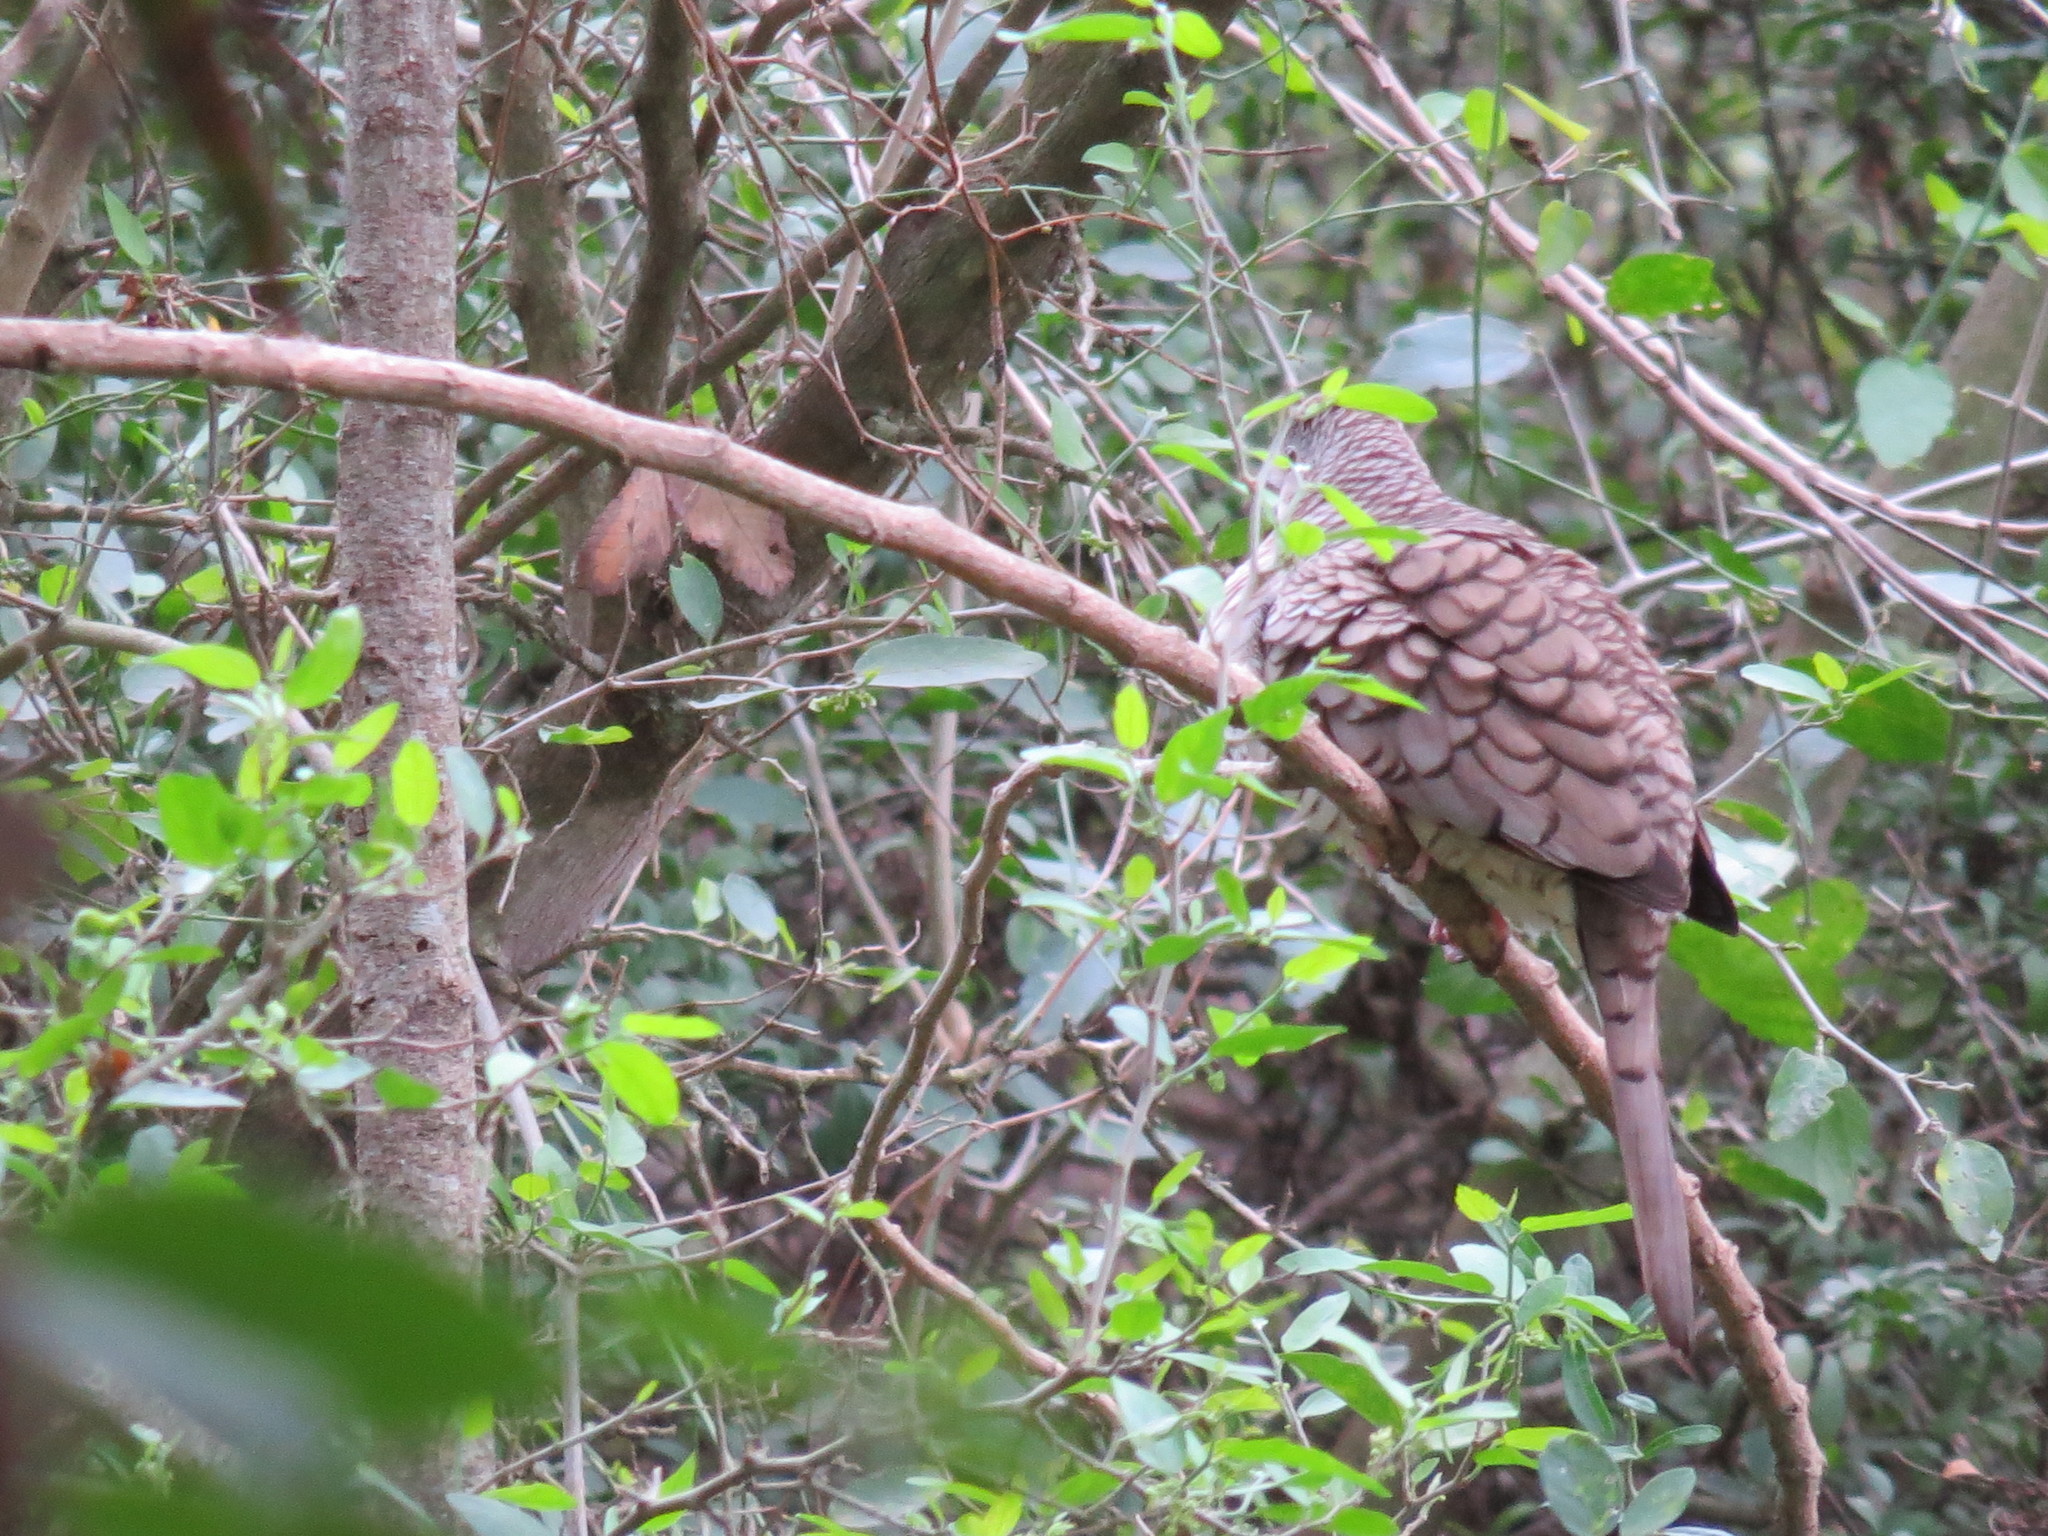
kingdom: Animalia
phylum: Chordata
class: Aves
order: Columbiformes
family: Columbidae
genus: Columbina
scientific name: Columbina inca
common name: Inca dove
